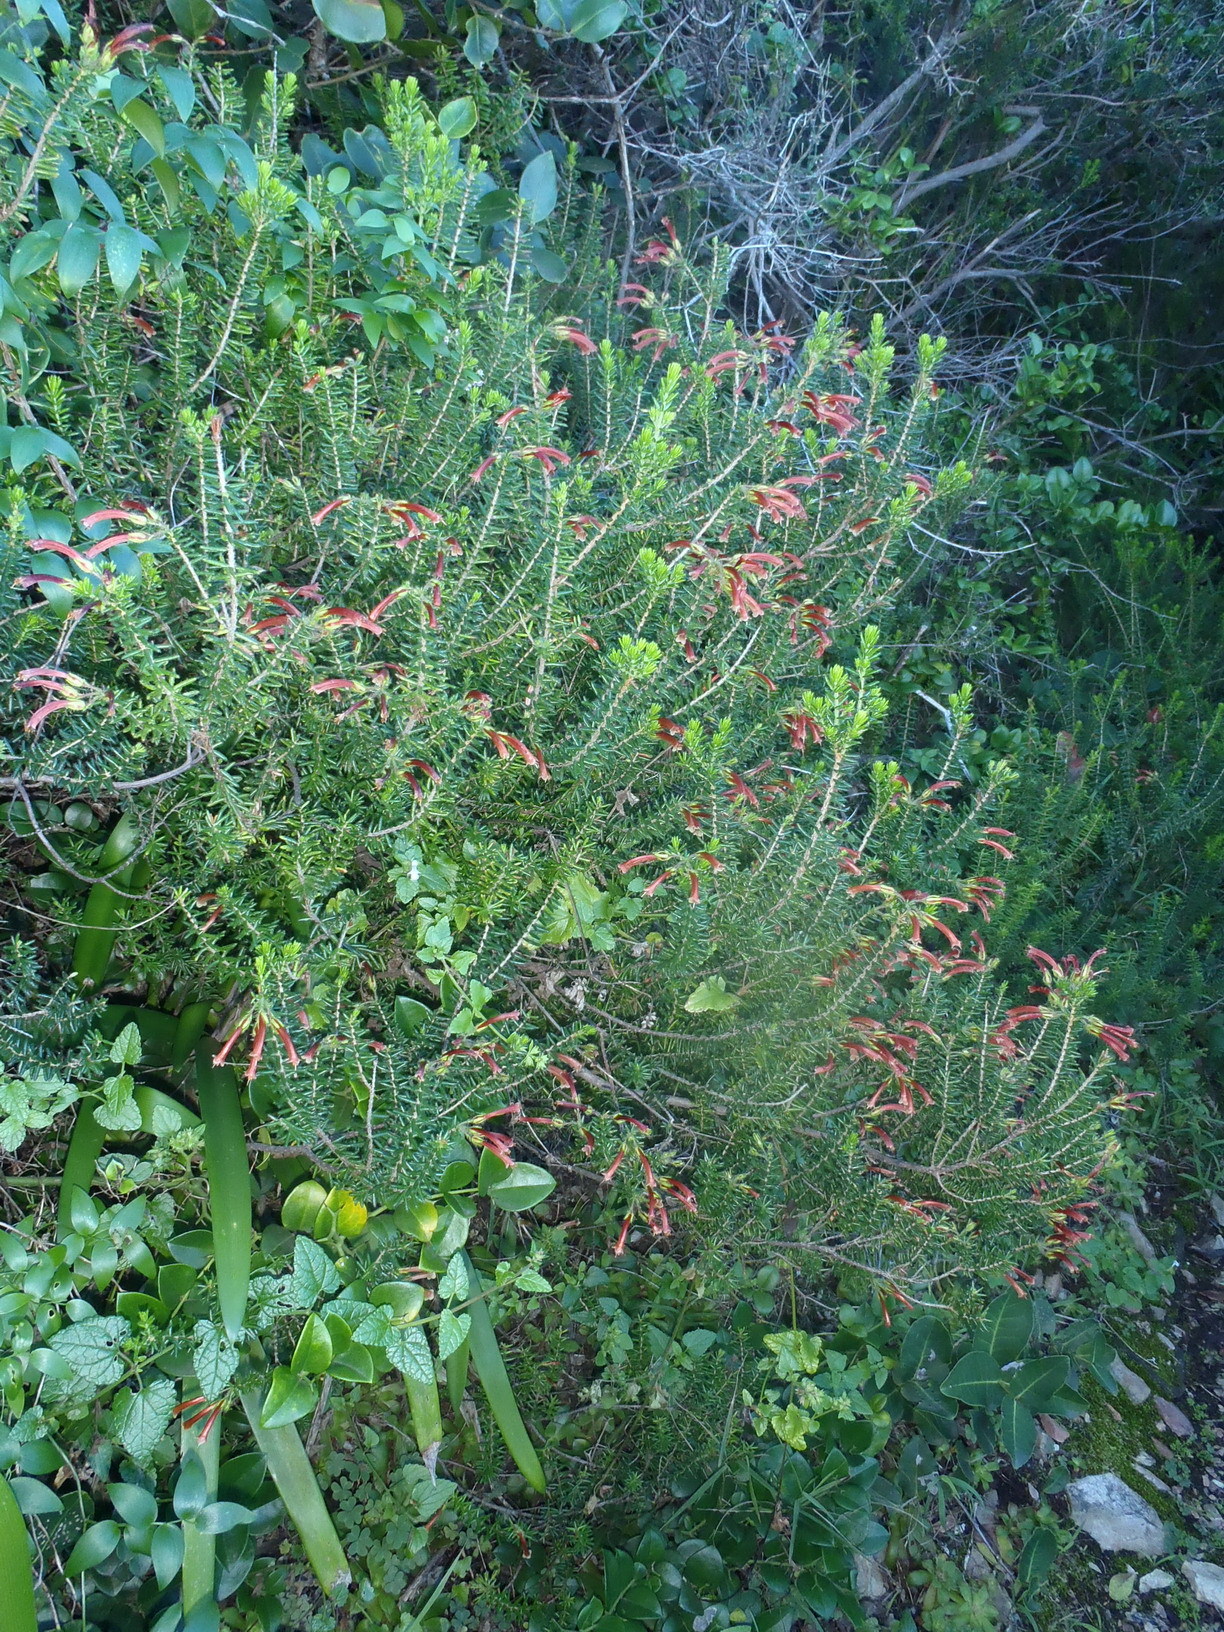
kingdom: Plantae
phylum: Tracheophyta
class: Magnoliopsida
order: Ericales
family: Ericaceae
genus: Erica
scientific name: Erica glandulosa
